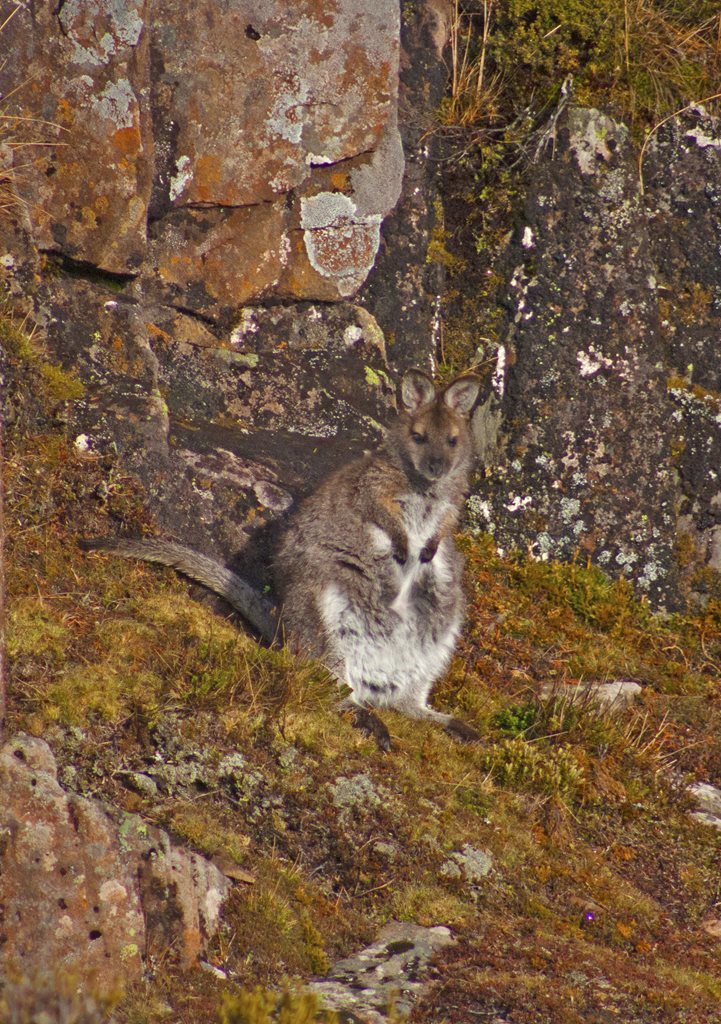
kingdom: Animalia
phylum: Chordata
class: Mammalia
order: Diprotodontia
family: Macropodidae
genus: Notamacropus
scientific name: Notamacropus rufogriseus
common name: Red-necked wallaby
